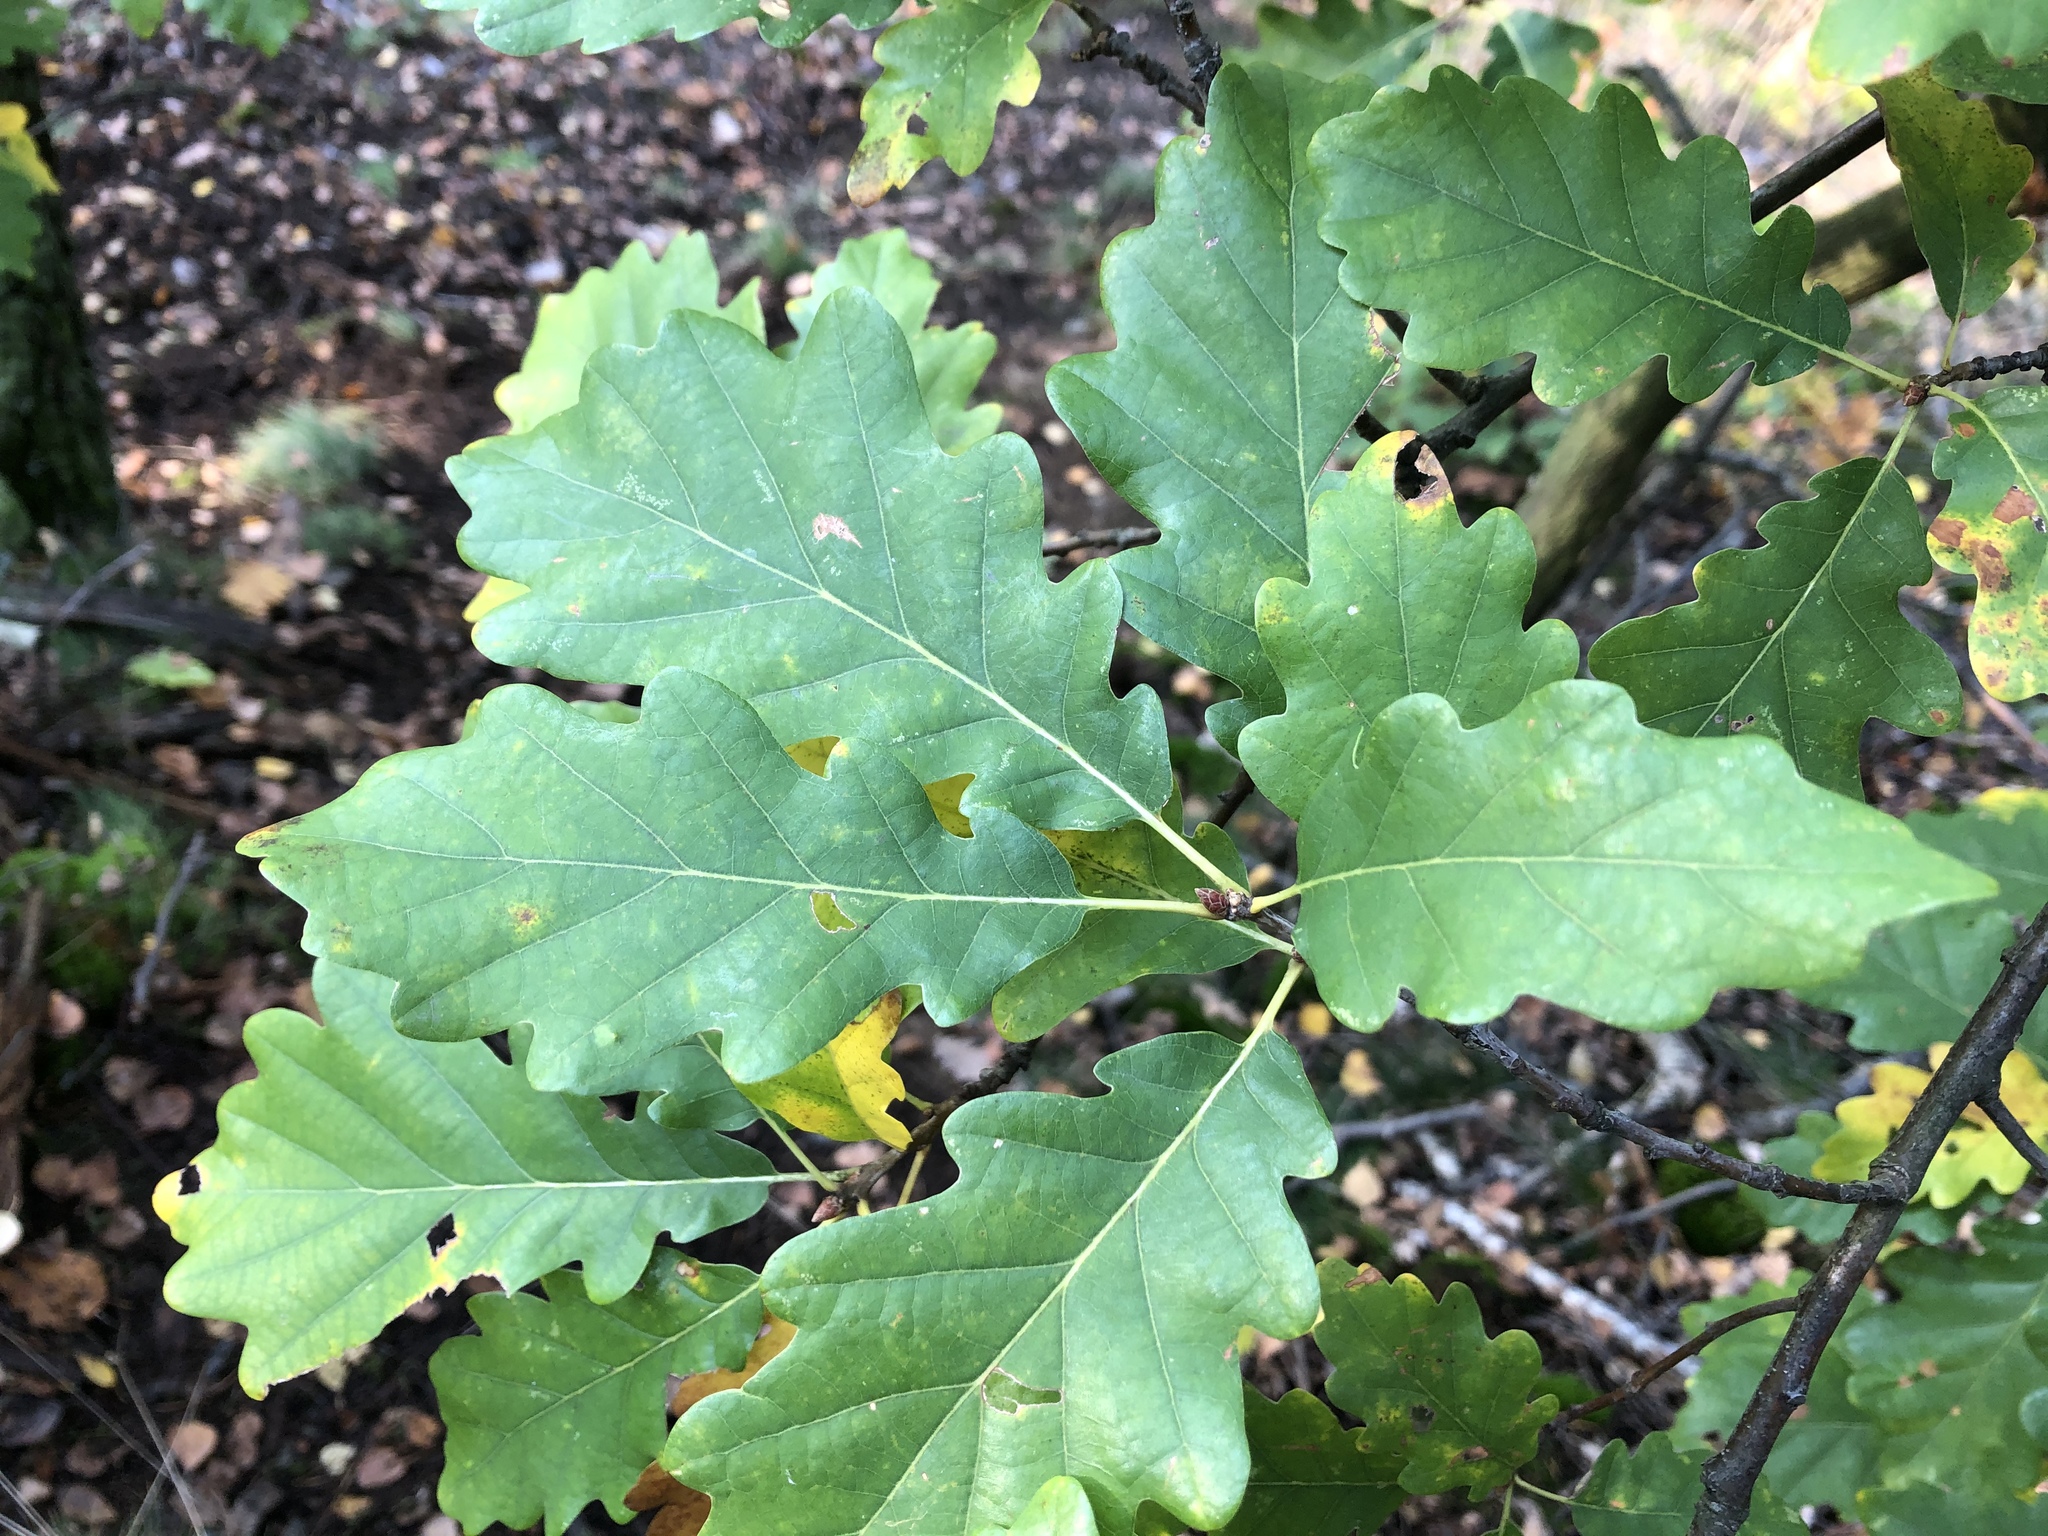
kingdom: Plantae
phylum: Tracheophyta
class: Magnoliopsida
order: Fagales
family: Fagaceae
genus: Quercus
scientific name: Quercus petraea
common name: Sessile oak
